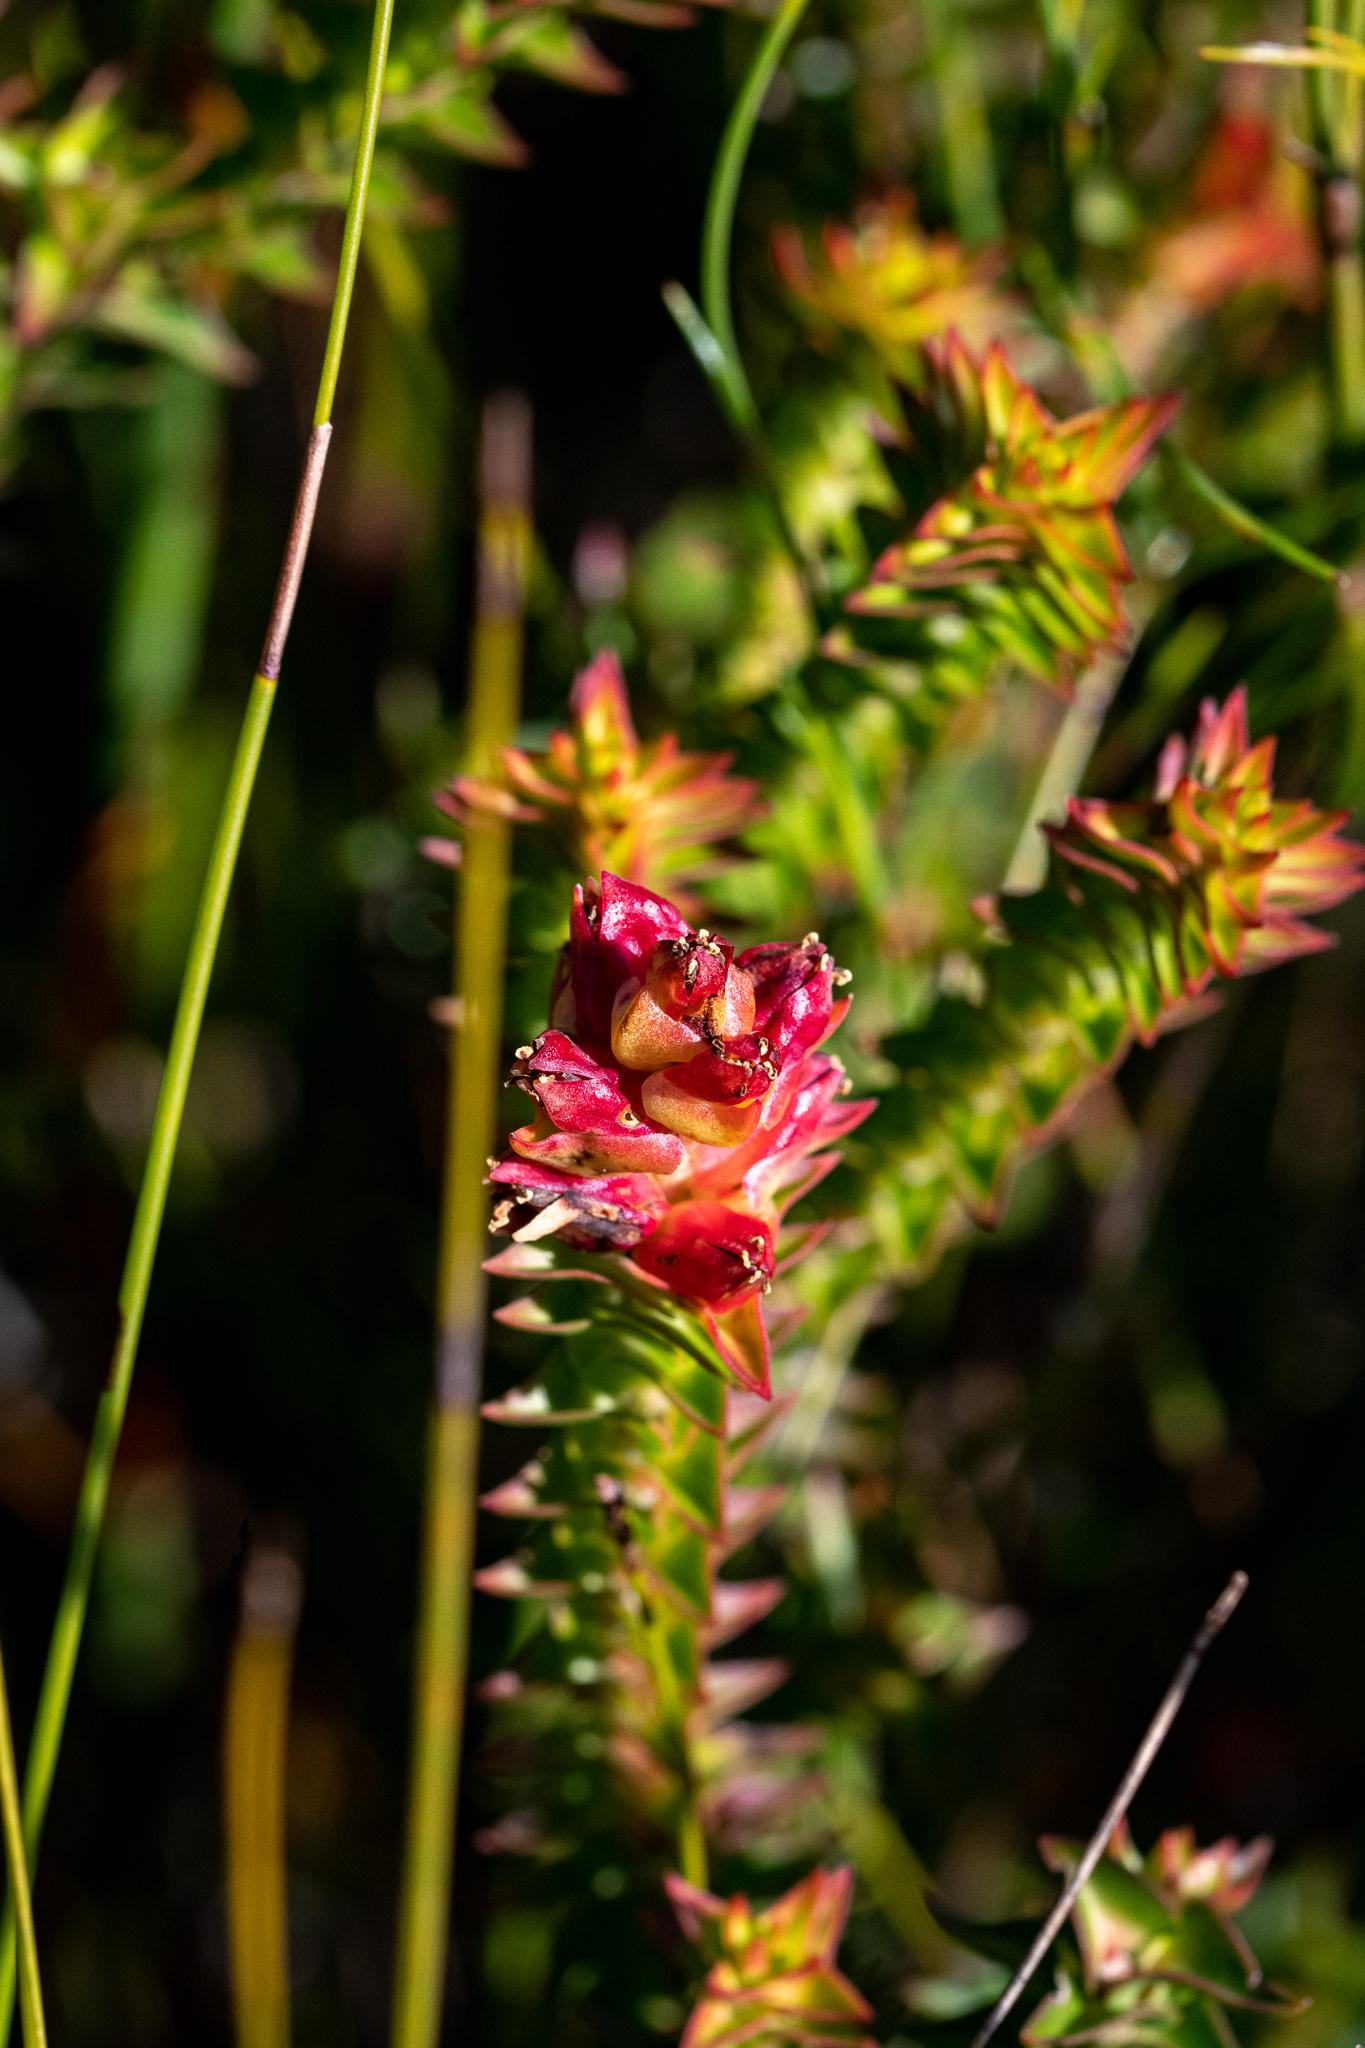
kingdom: Plantae
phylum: Tracheophyta
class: Magnoliopsida
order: Myrtales
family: Penaeaceae
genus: Penaea
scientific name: Penaea mucronata
